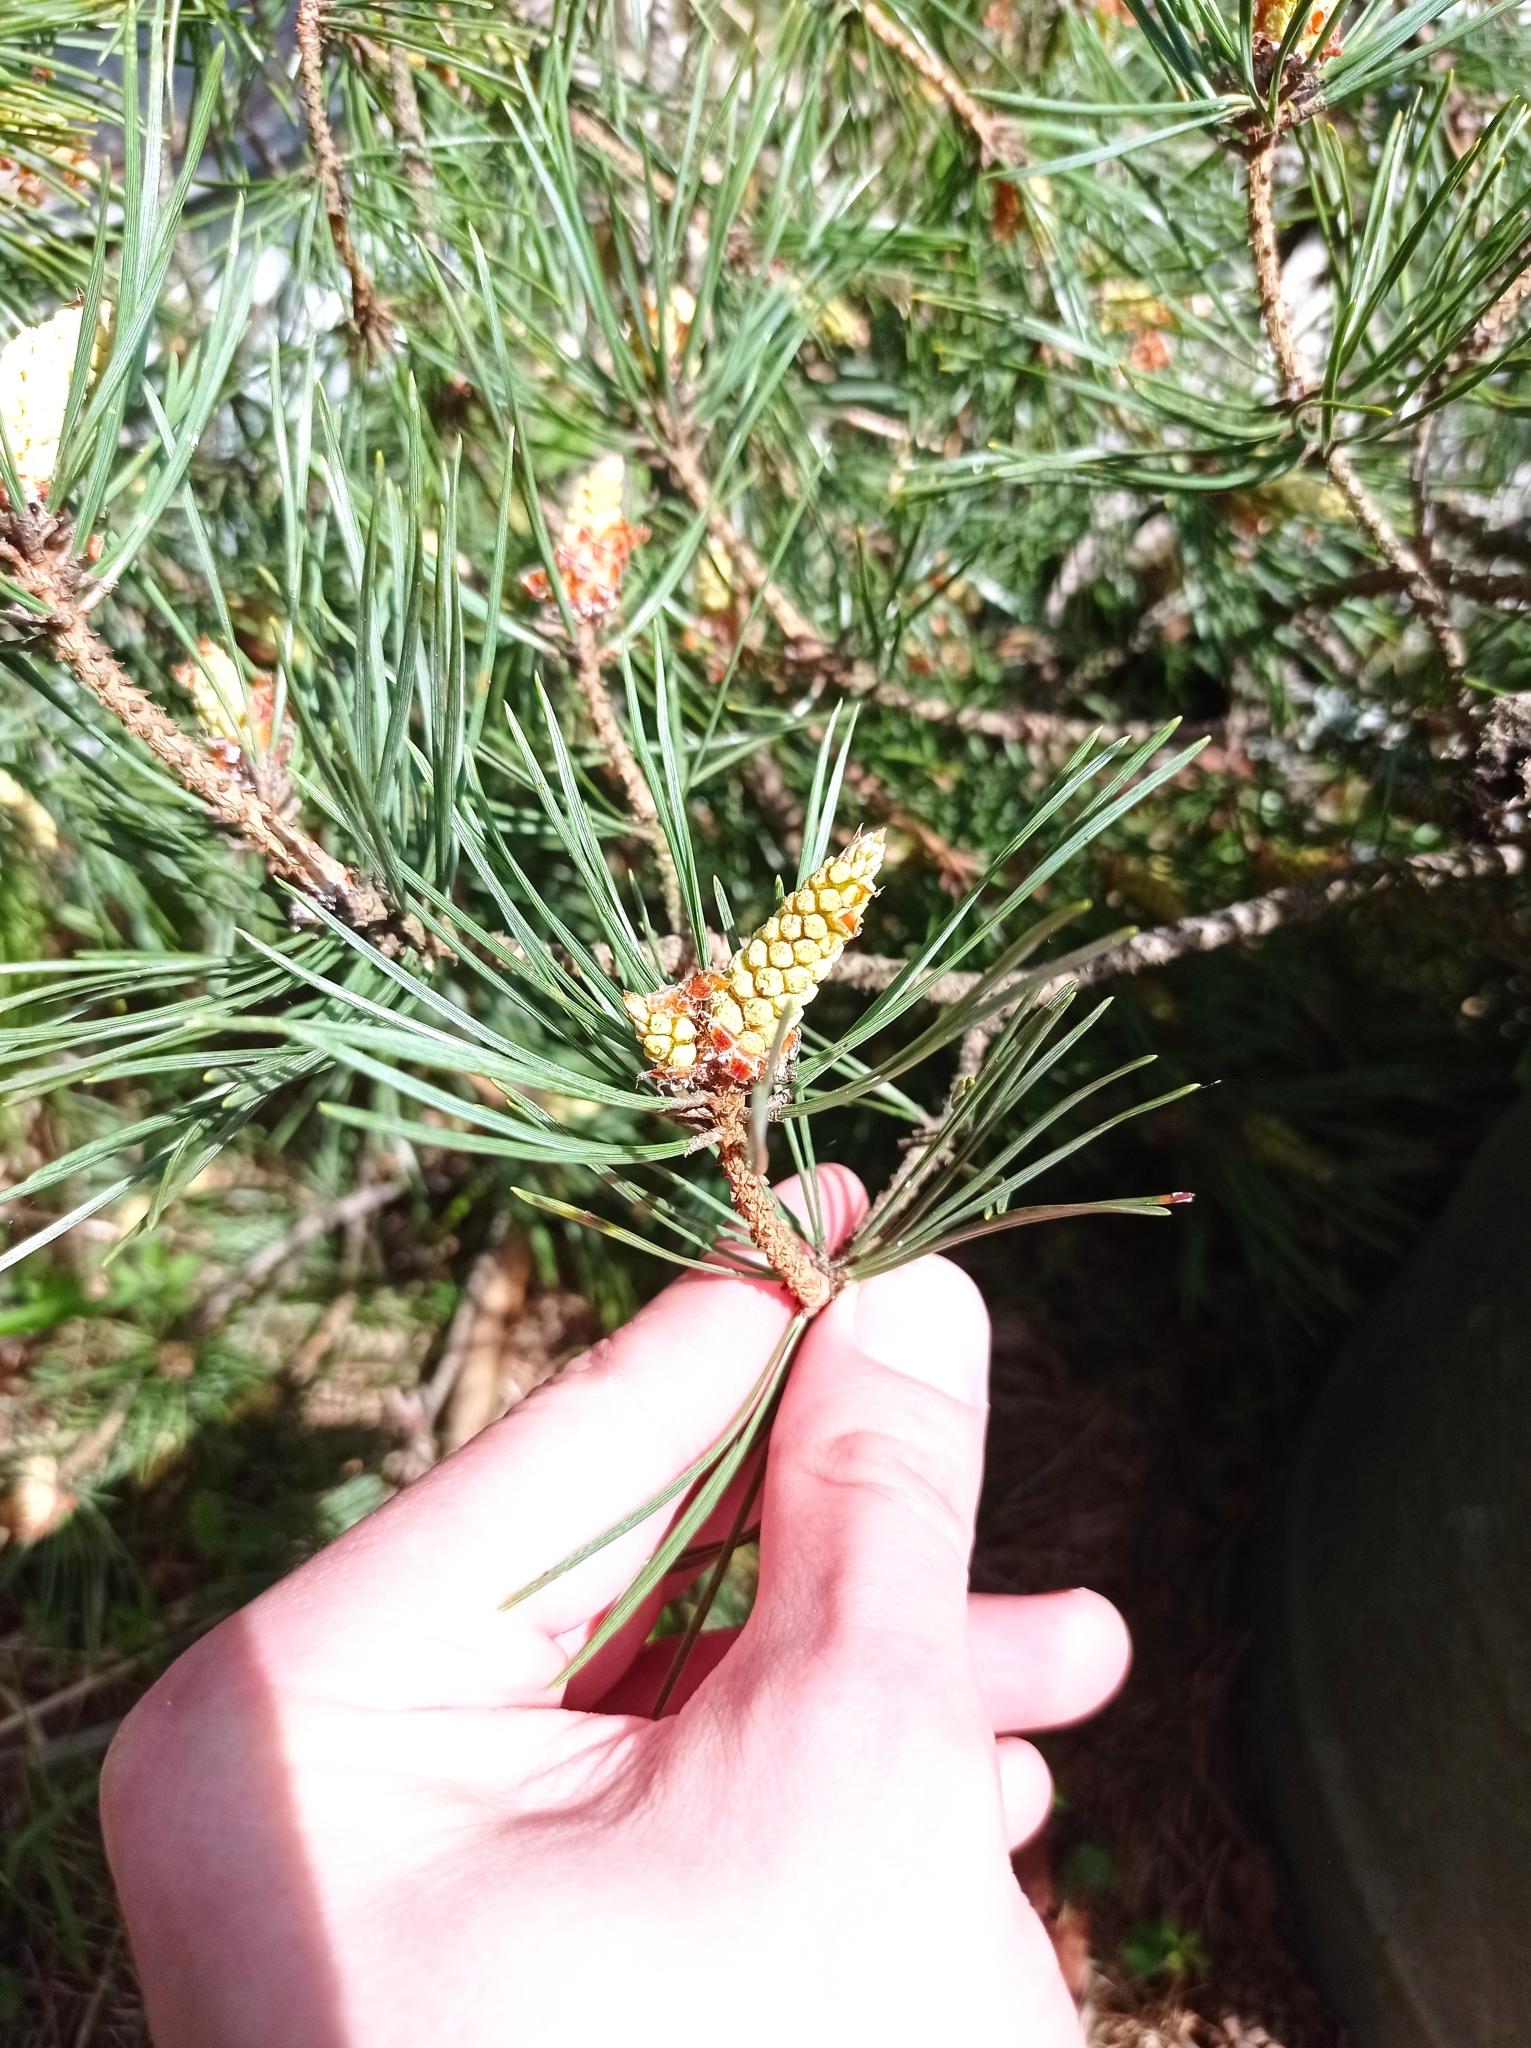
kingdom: Plantae
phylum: Tracheophyta
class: Pinopsida
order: Pinales
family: Pinaceae
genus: Pinus
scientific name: Pinus sylvestris
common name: Scots pine
